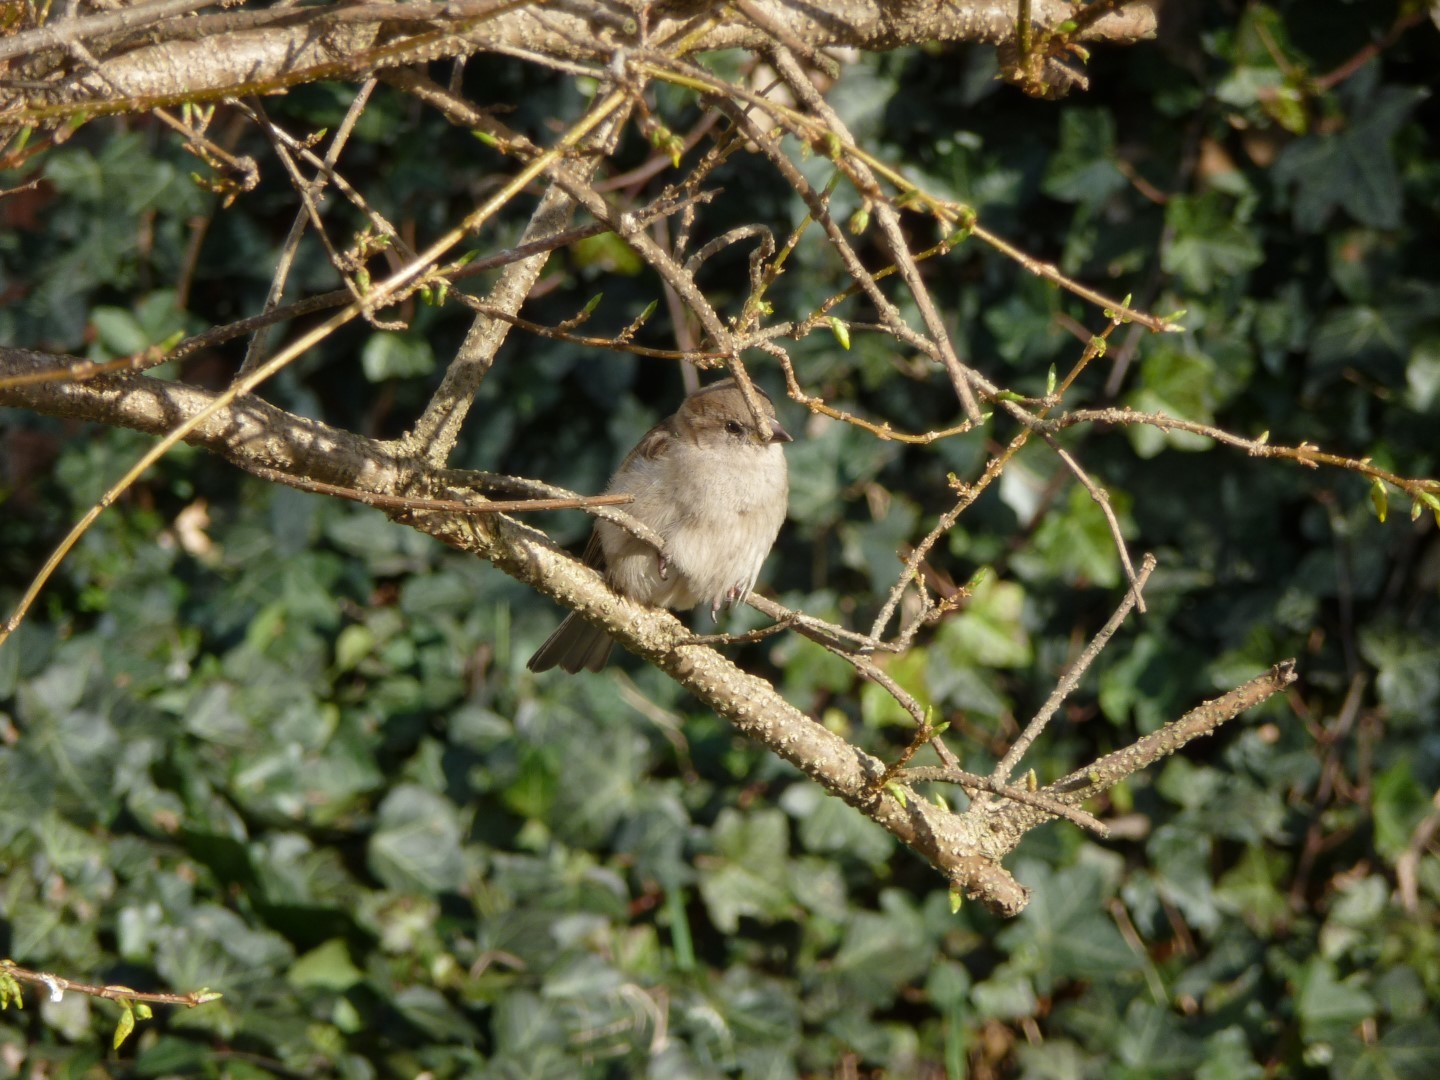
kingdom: Animalia
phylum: Chordata
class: Aves
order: Passeriformes
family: Passeridae
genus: Passer
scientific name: Passer domesticus
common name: House sparrow
